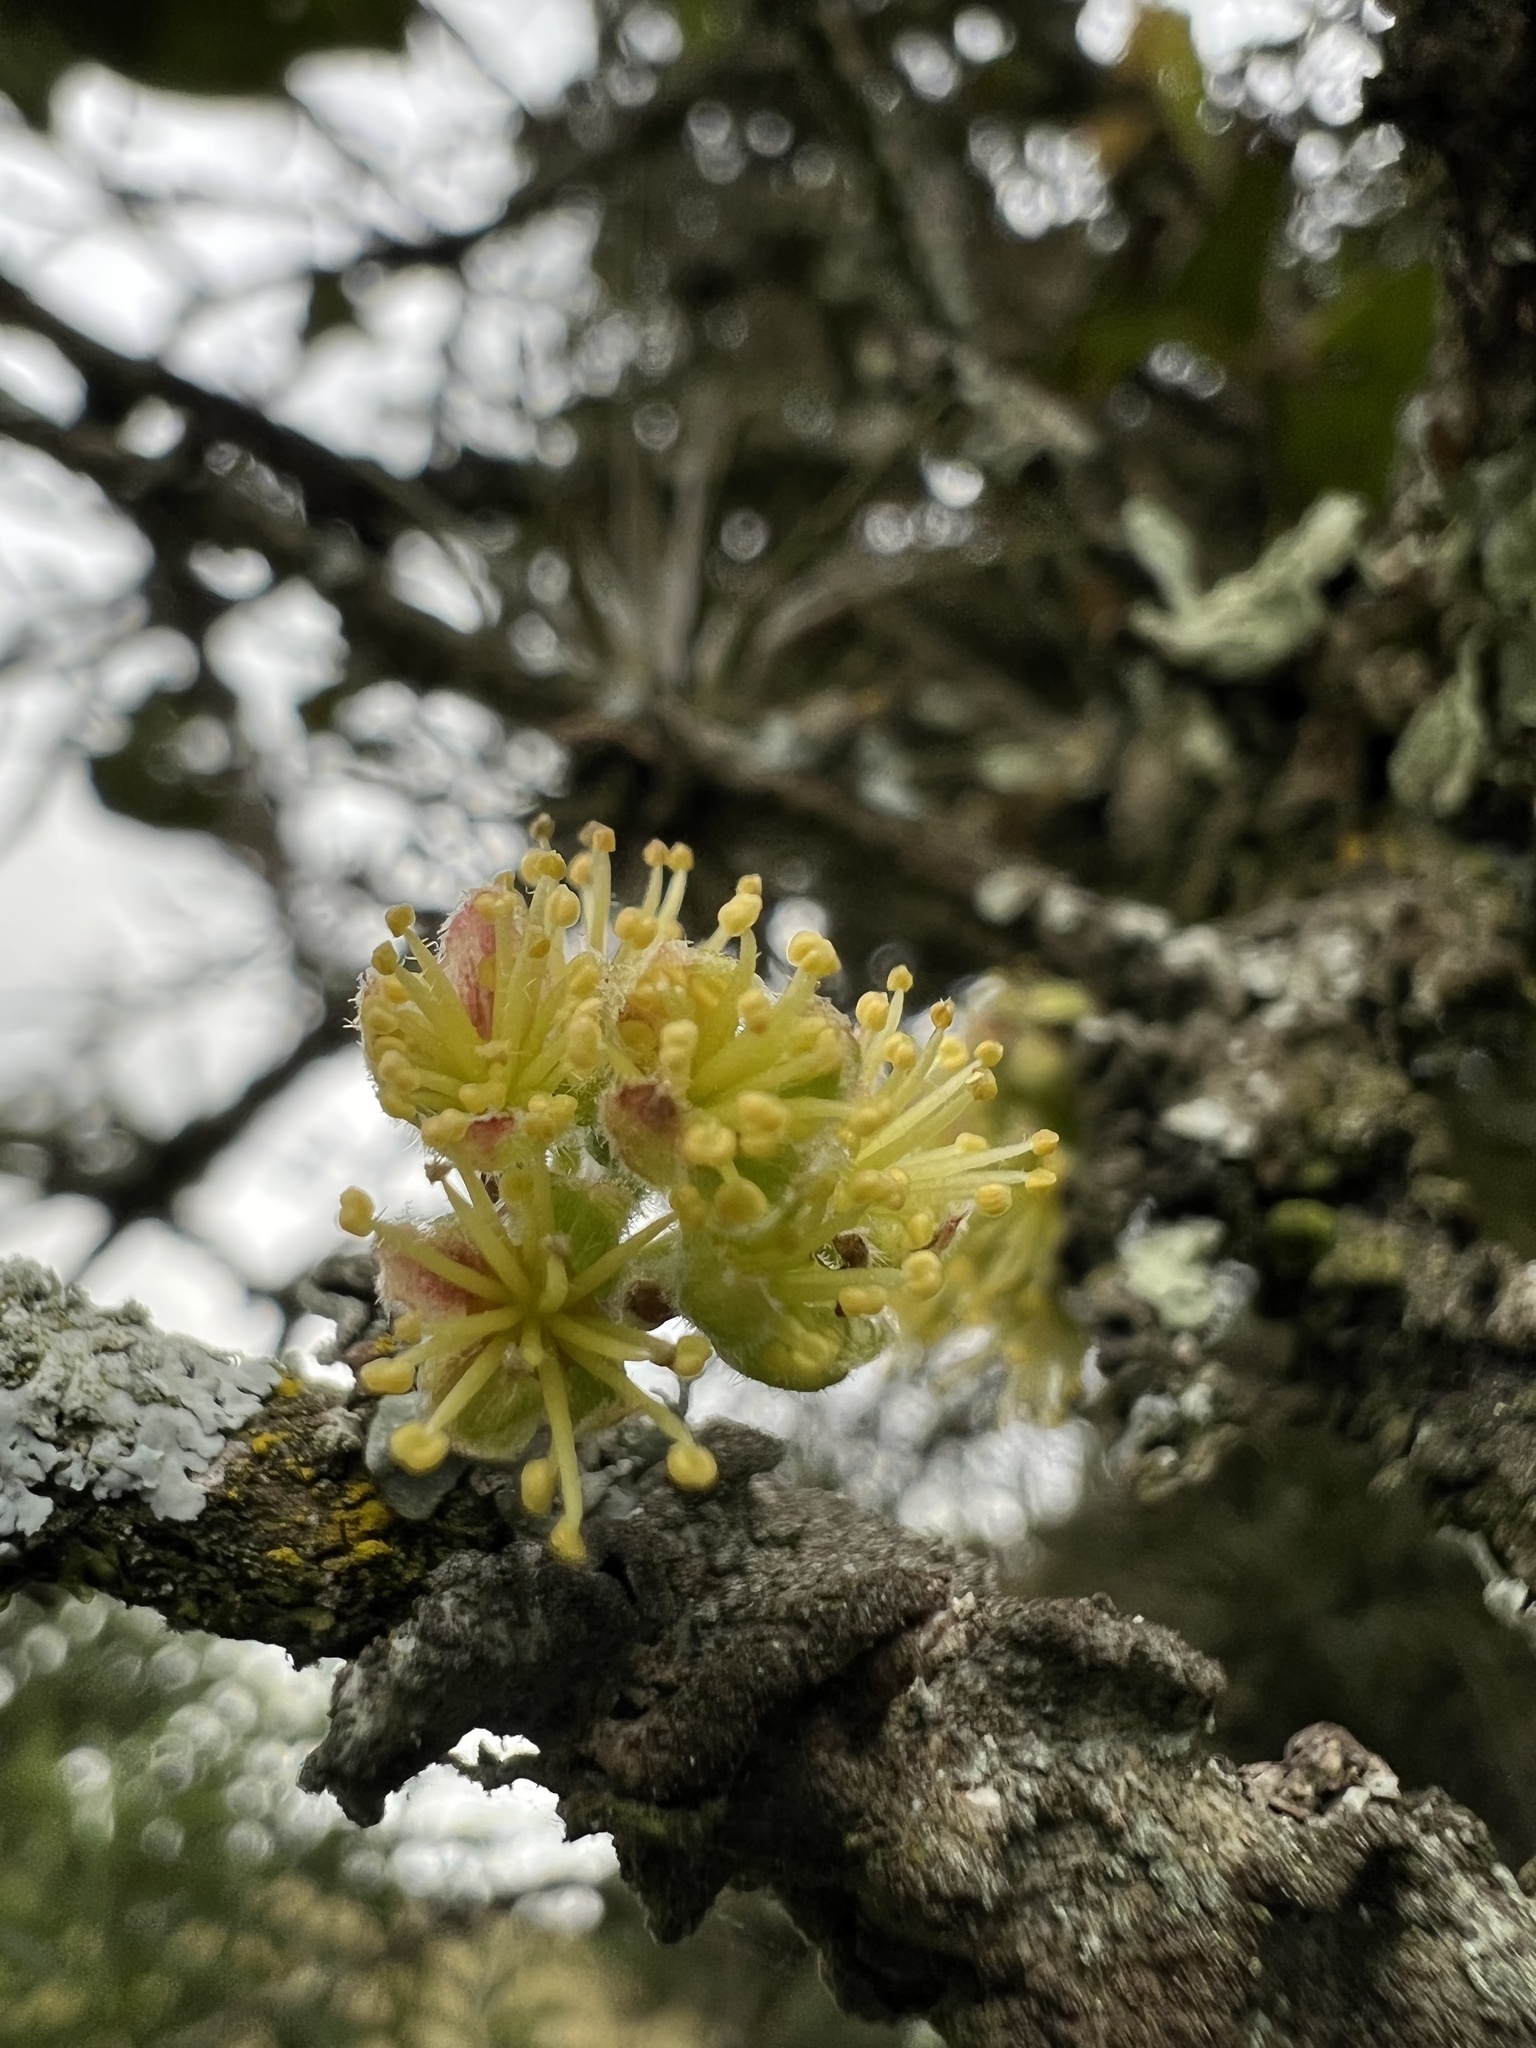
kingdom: Plantae
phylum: Tracheophyta
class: Magnoliopsida
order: Malpighiales
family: Salicaceae
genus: Xylosma
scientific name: Xylosma spiculifera
